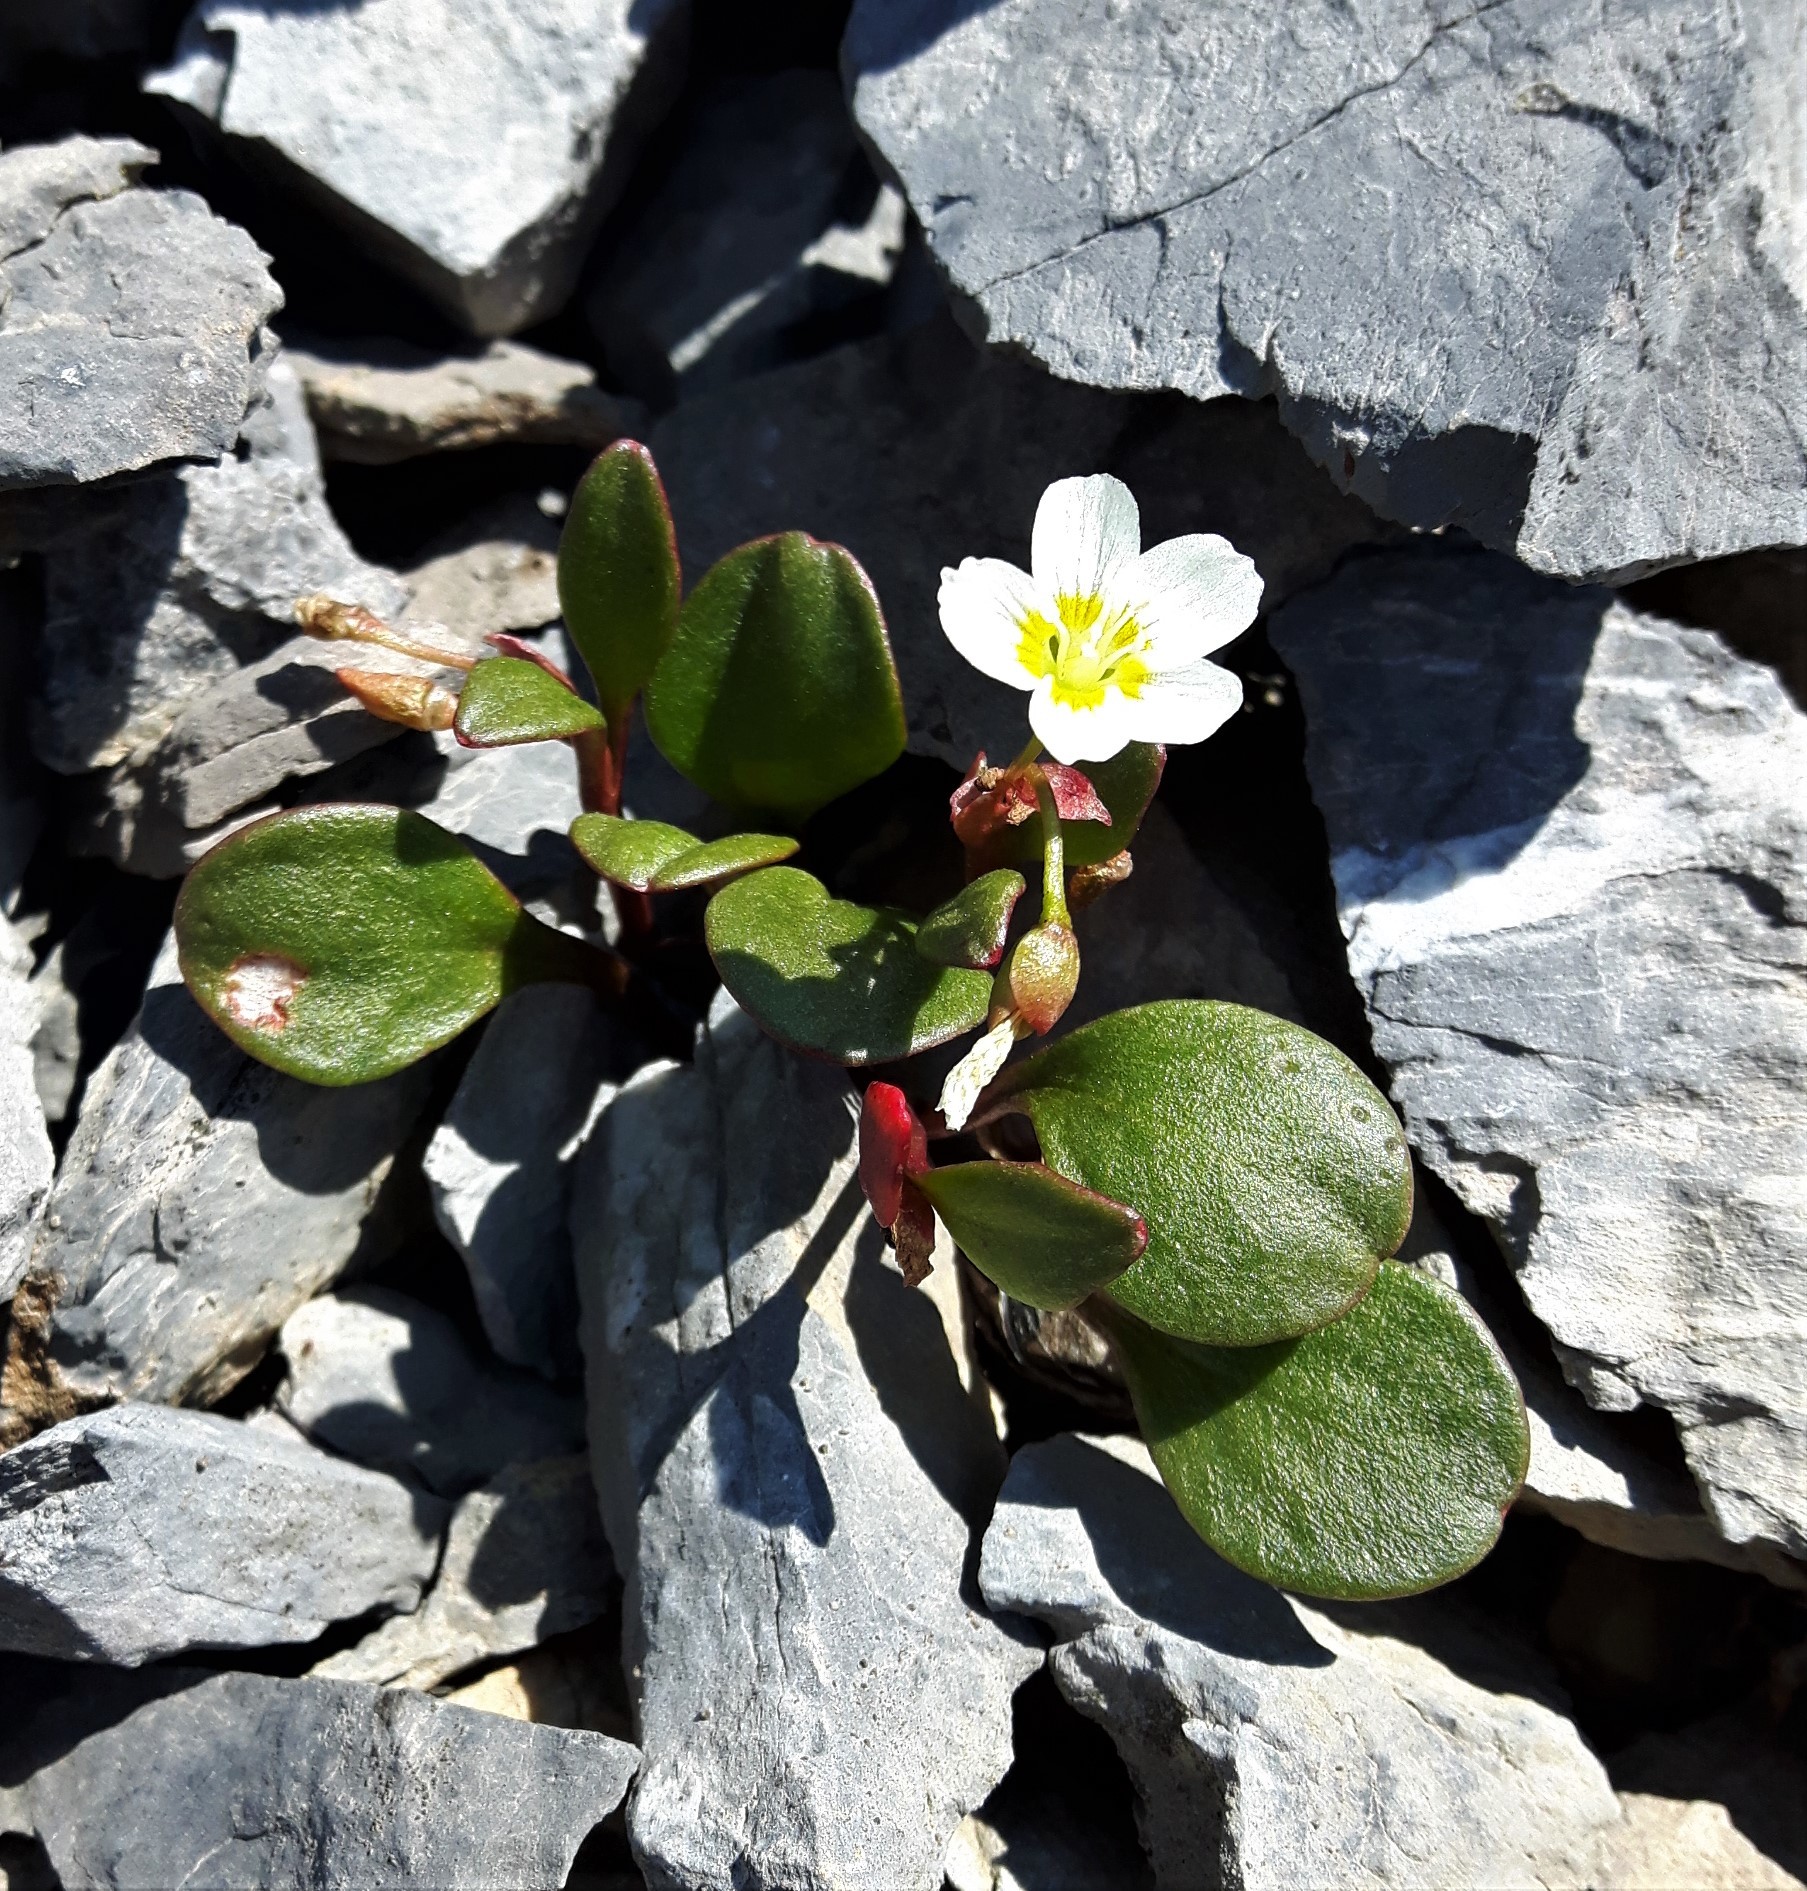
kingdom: Plantae
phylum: Tracheophyta
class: Magnoliopsida
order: Caryophyllales
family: Montiaceae
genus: Claytonia
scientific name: Claytonia megarhiza
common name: Alpine spring beauty
